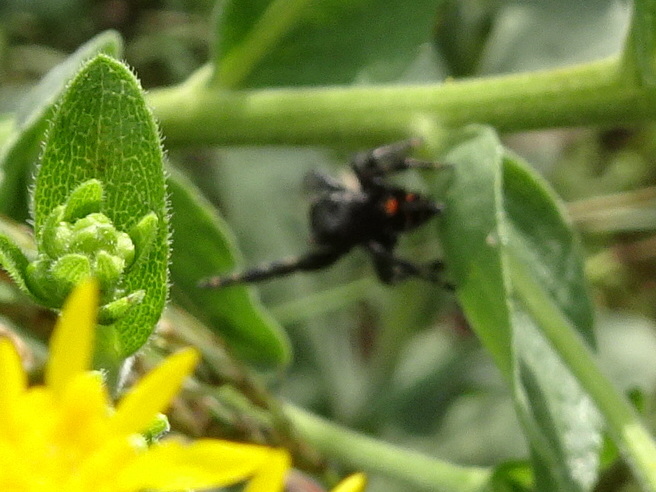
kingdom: Animalia
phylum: Arthropoda
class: Arachnida
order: Araneae
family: Salticidae
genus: Phidippus
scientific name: Phidippus audax
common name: Bold jumper
